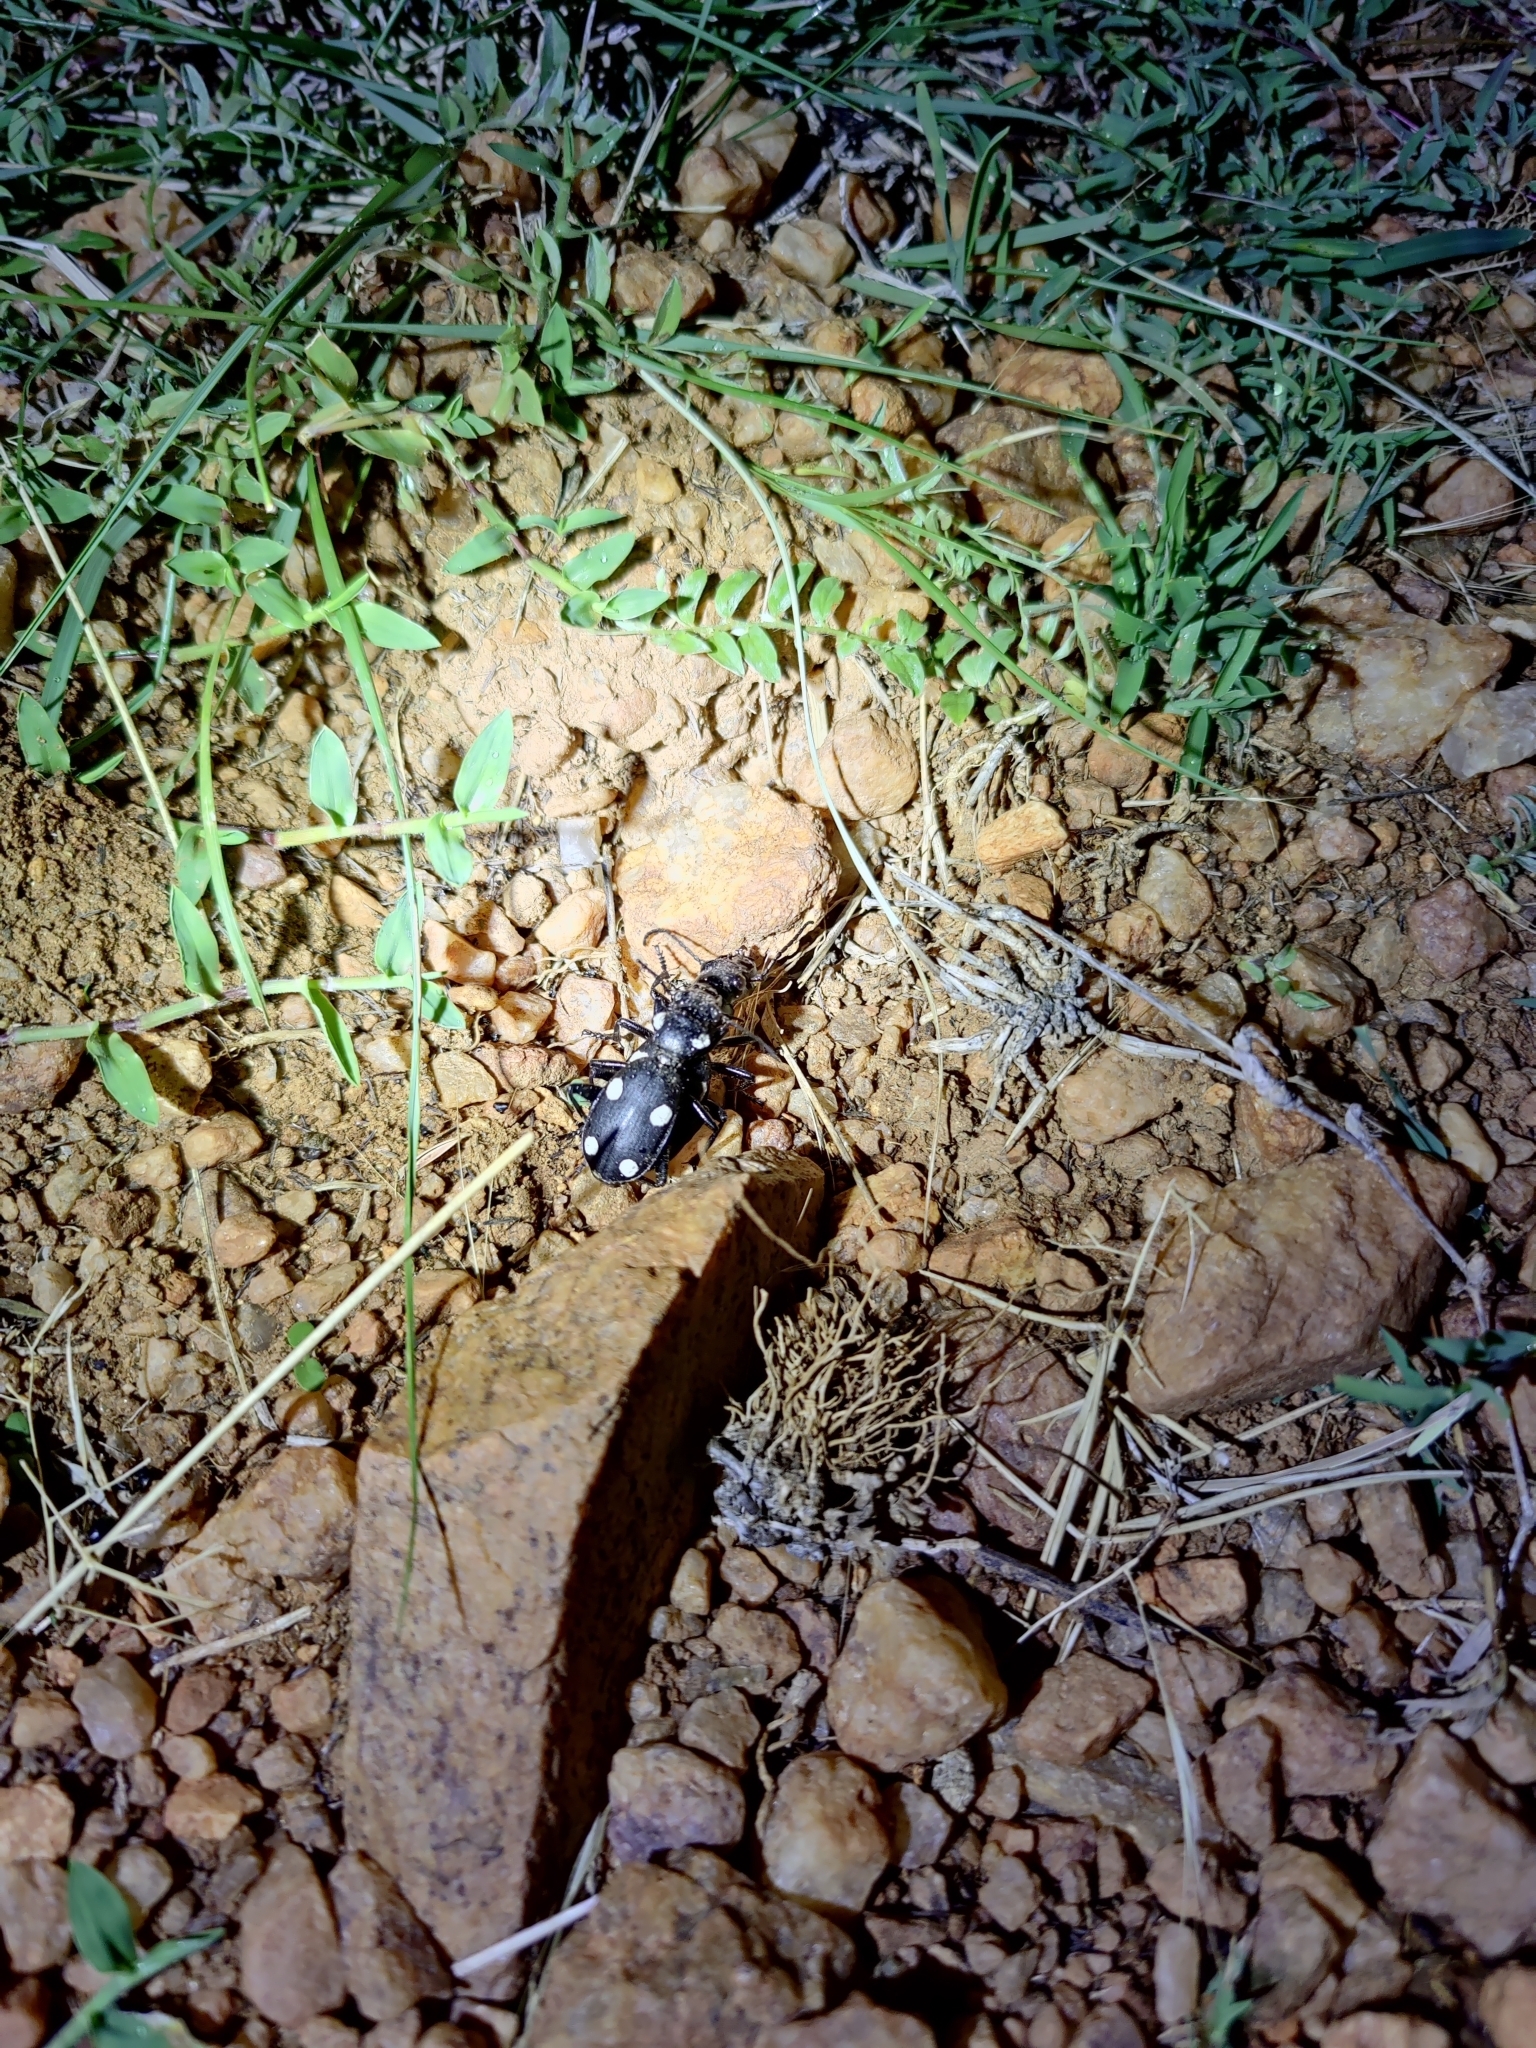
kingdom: Animalia
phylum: Arthropoda
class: Insecta
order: Coleoptera
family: Carabidae
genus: Anthia
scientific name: Anthia sexguttata
